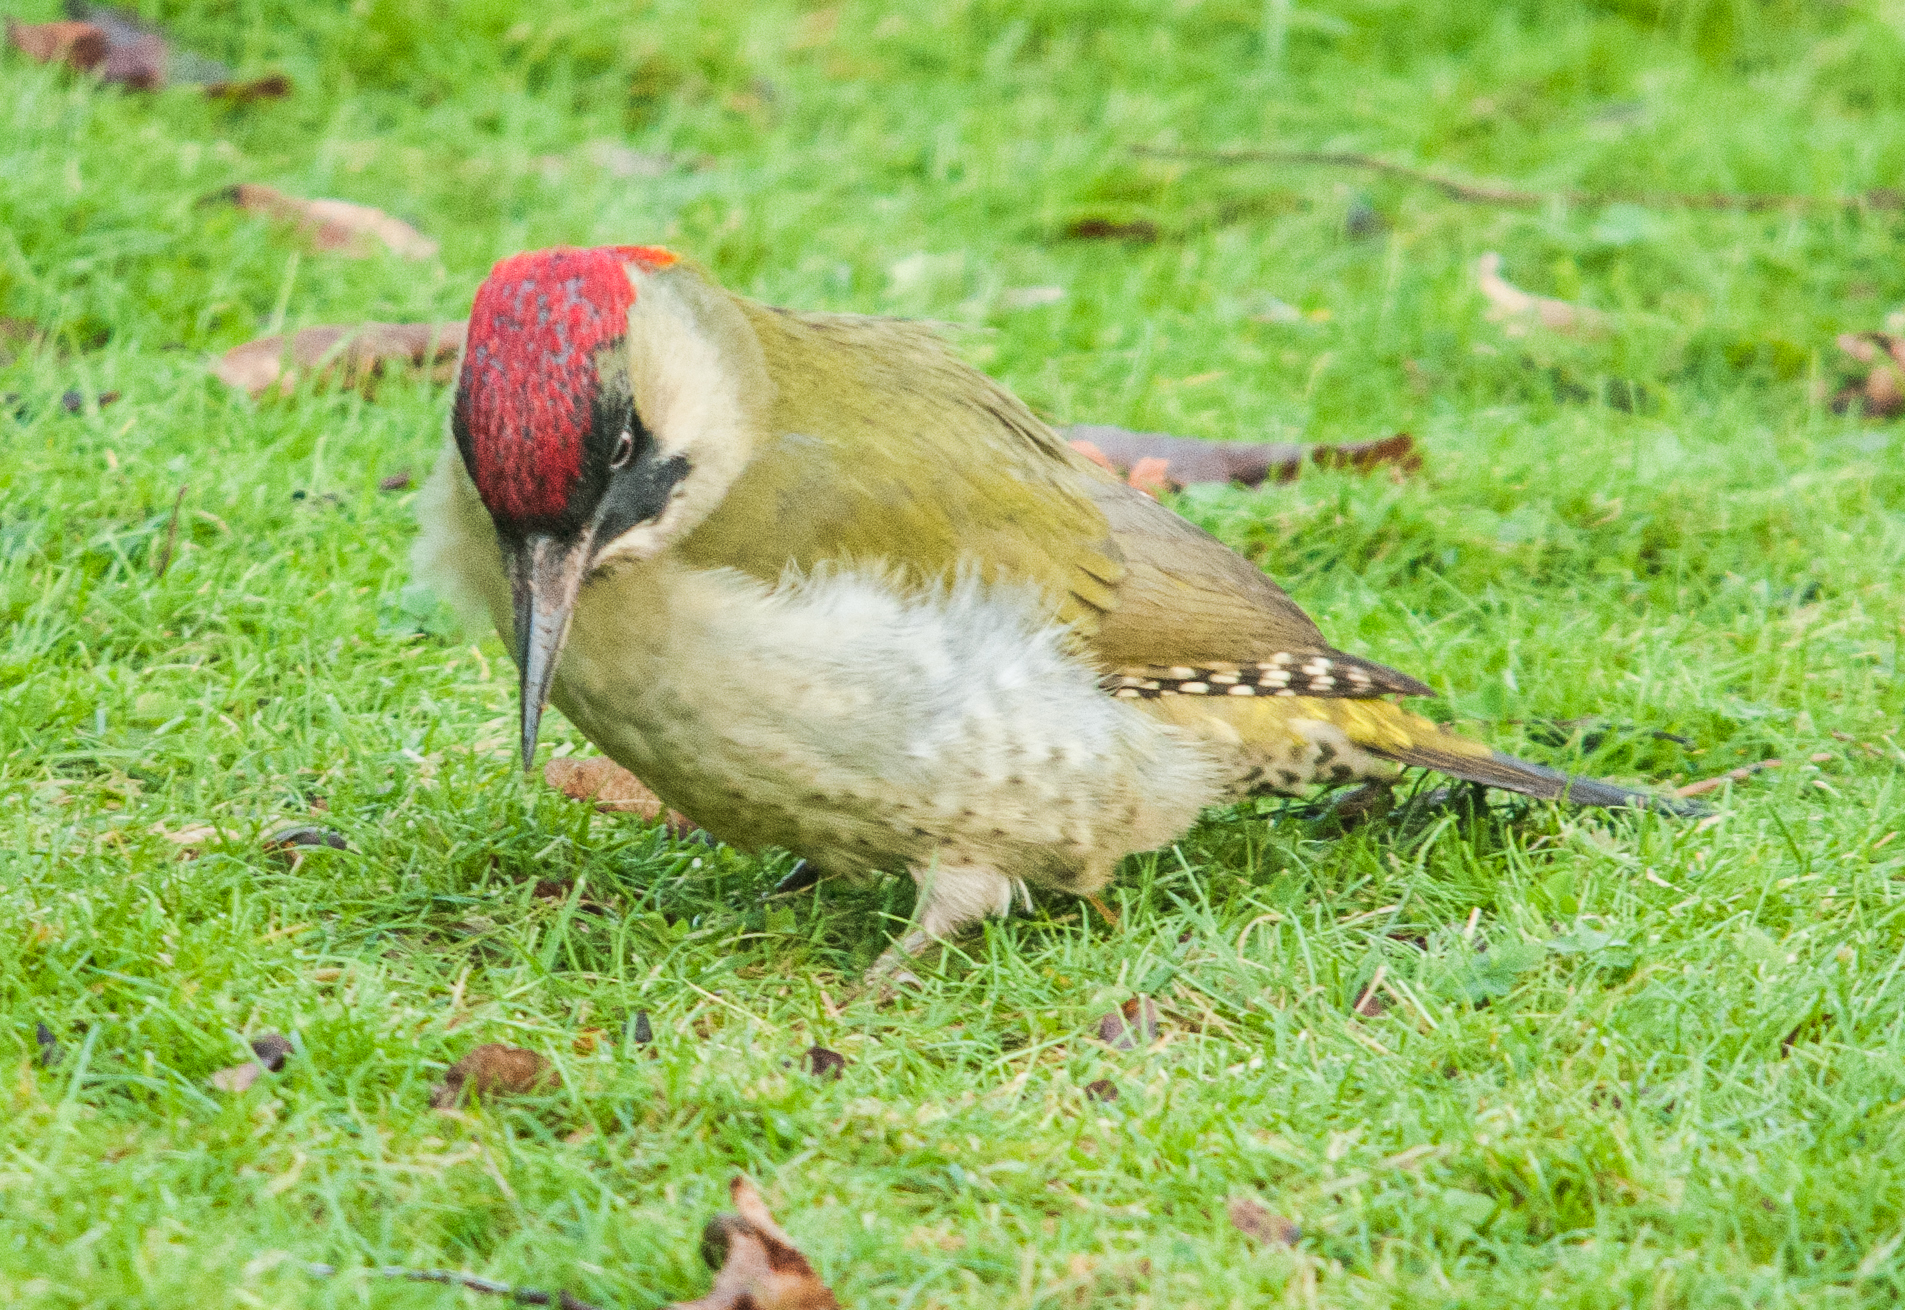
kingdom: Animalia
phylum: Chordata
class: Aves
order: Piciformes
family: Picidae
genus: Picus
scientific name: Picus viridis
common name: European green woodpecker
